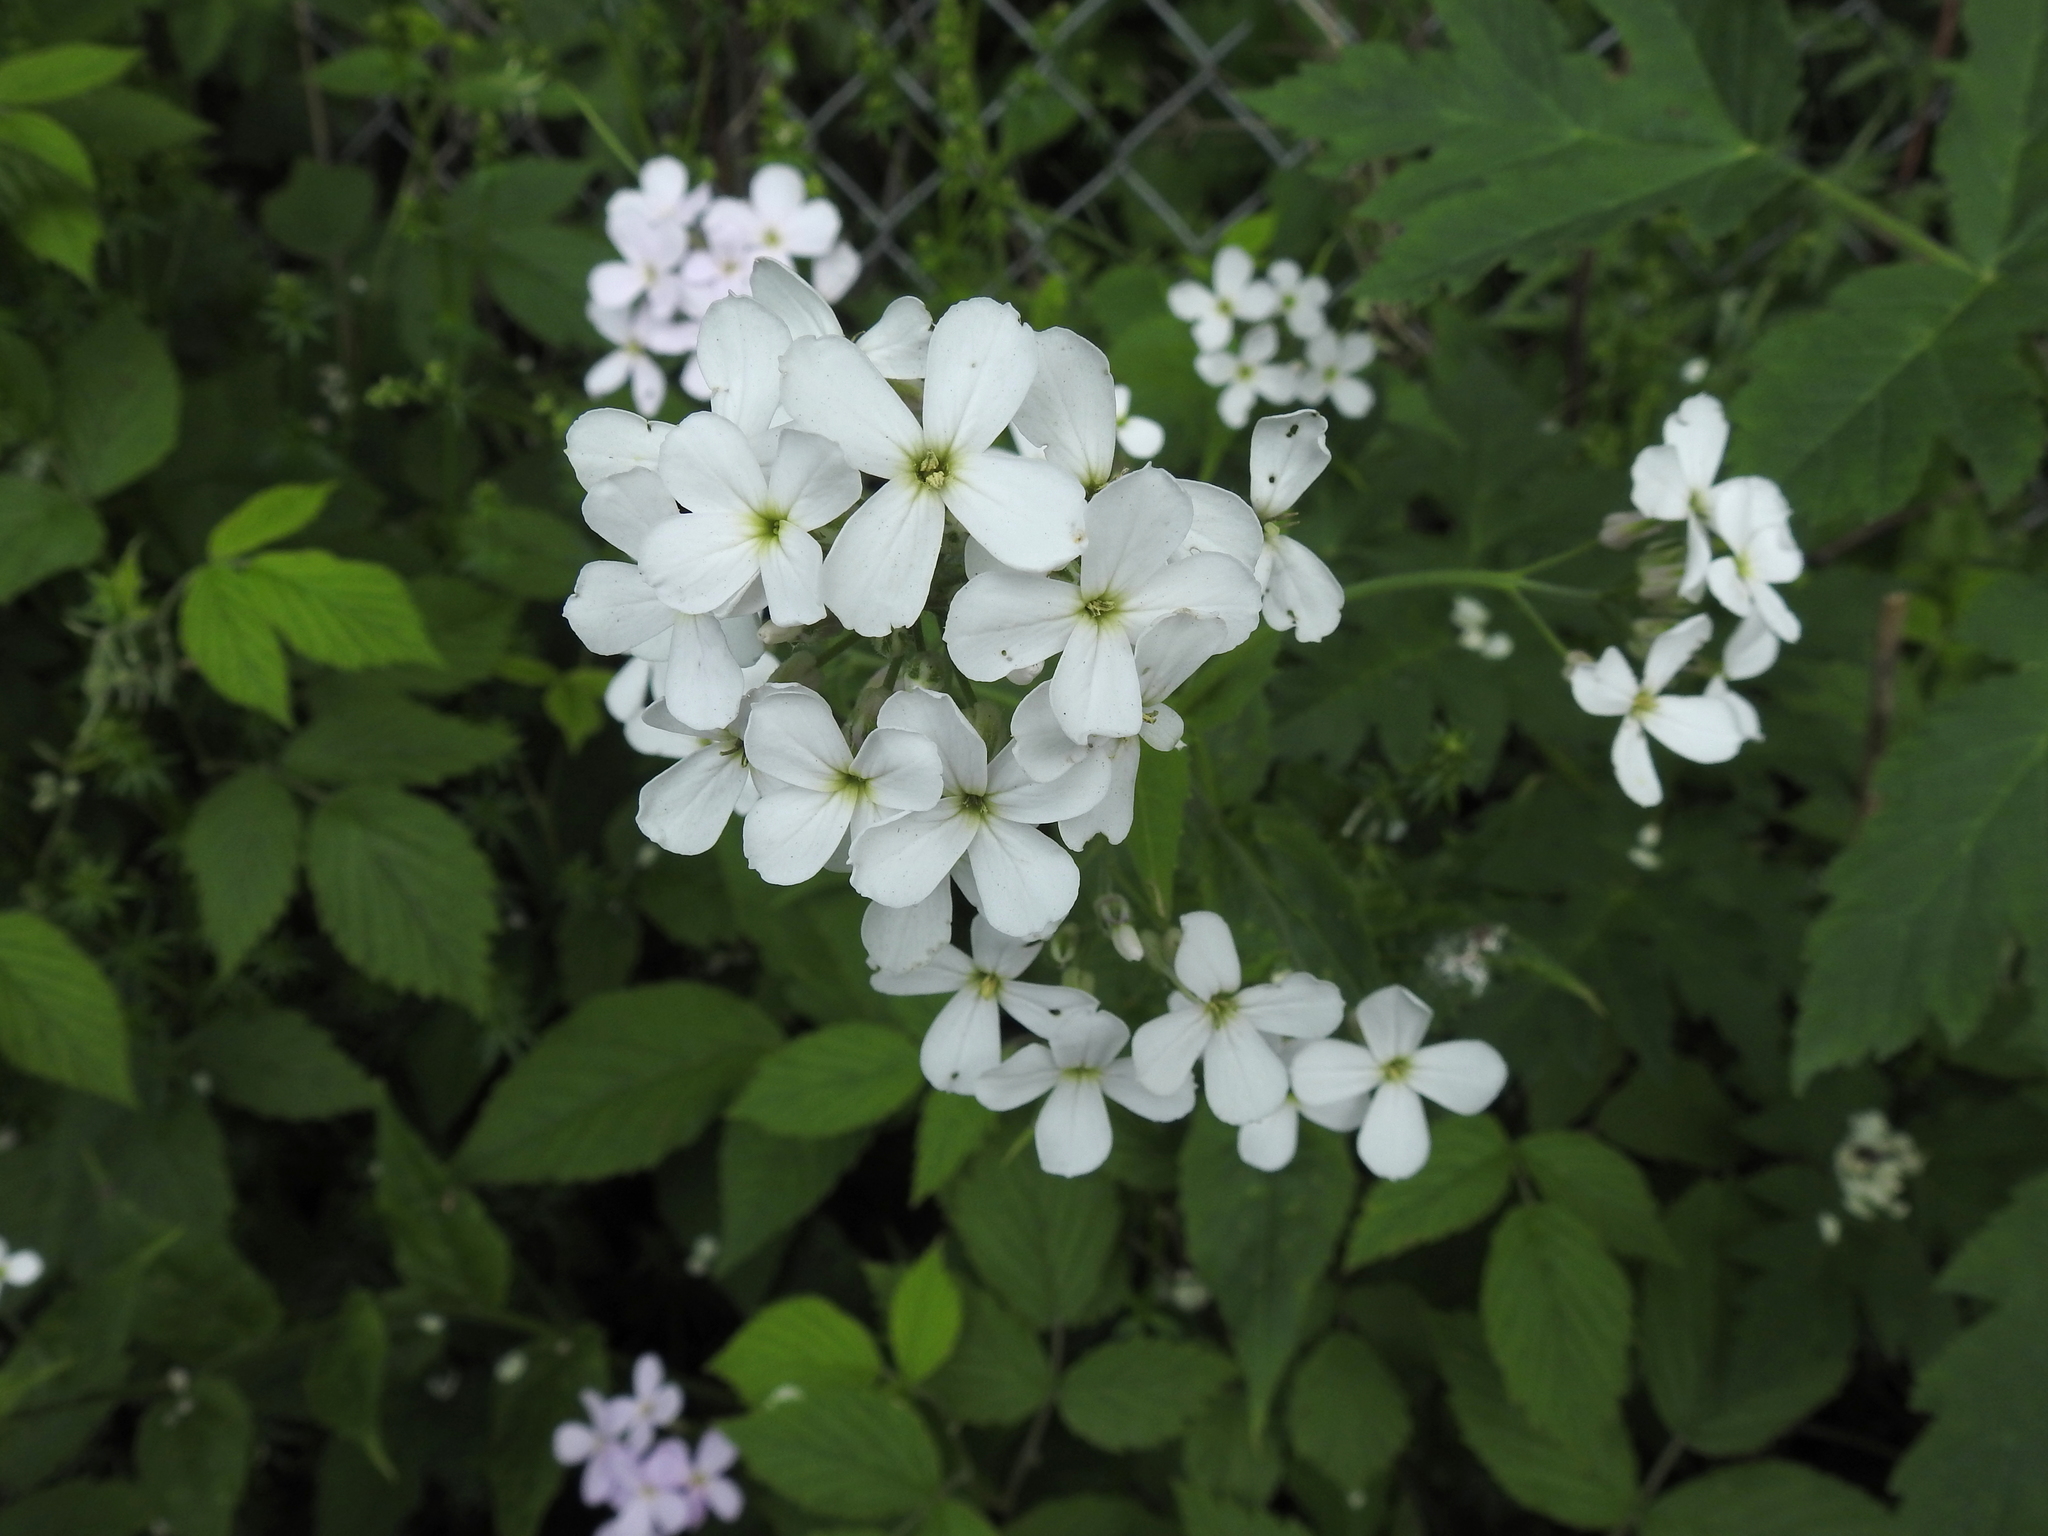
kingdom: Plantae
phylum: Tracheophyta
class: Magnoliopsida
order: Brassicales
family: Brassicaceae
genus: Hesperis
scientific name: Hesperis matronalis
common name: Dame's-violet
